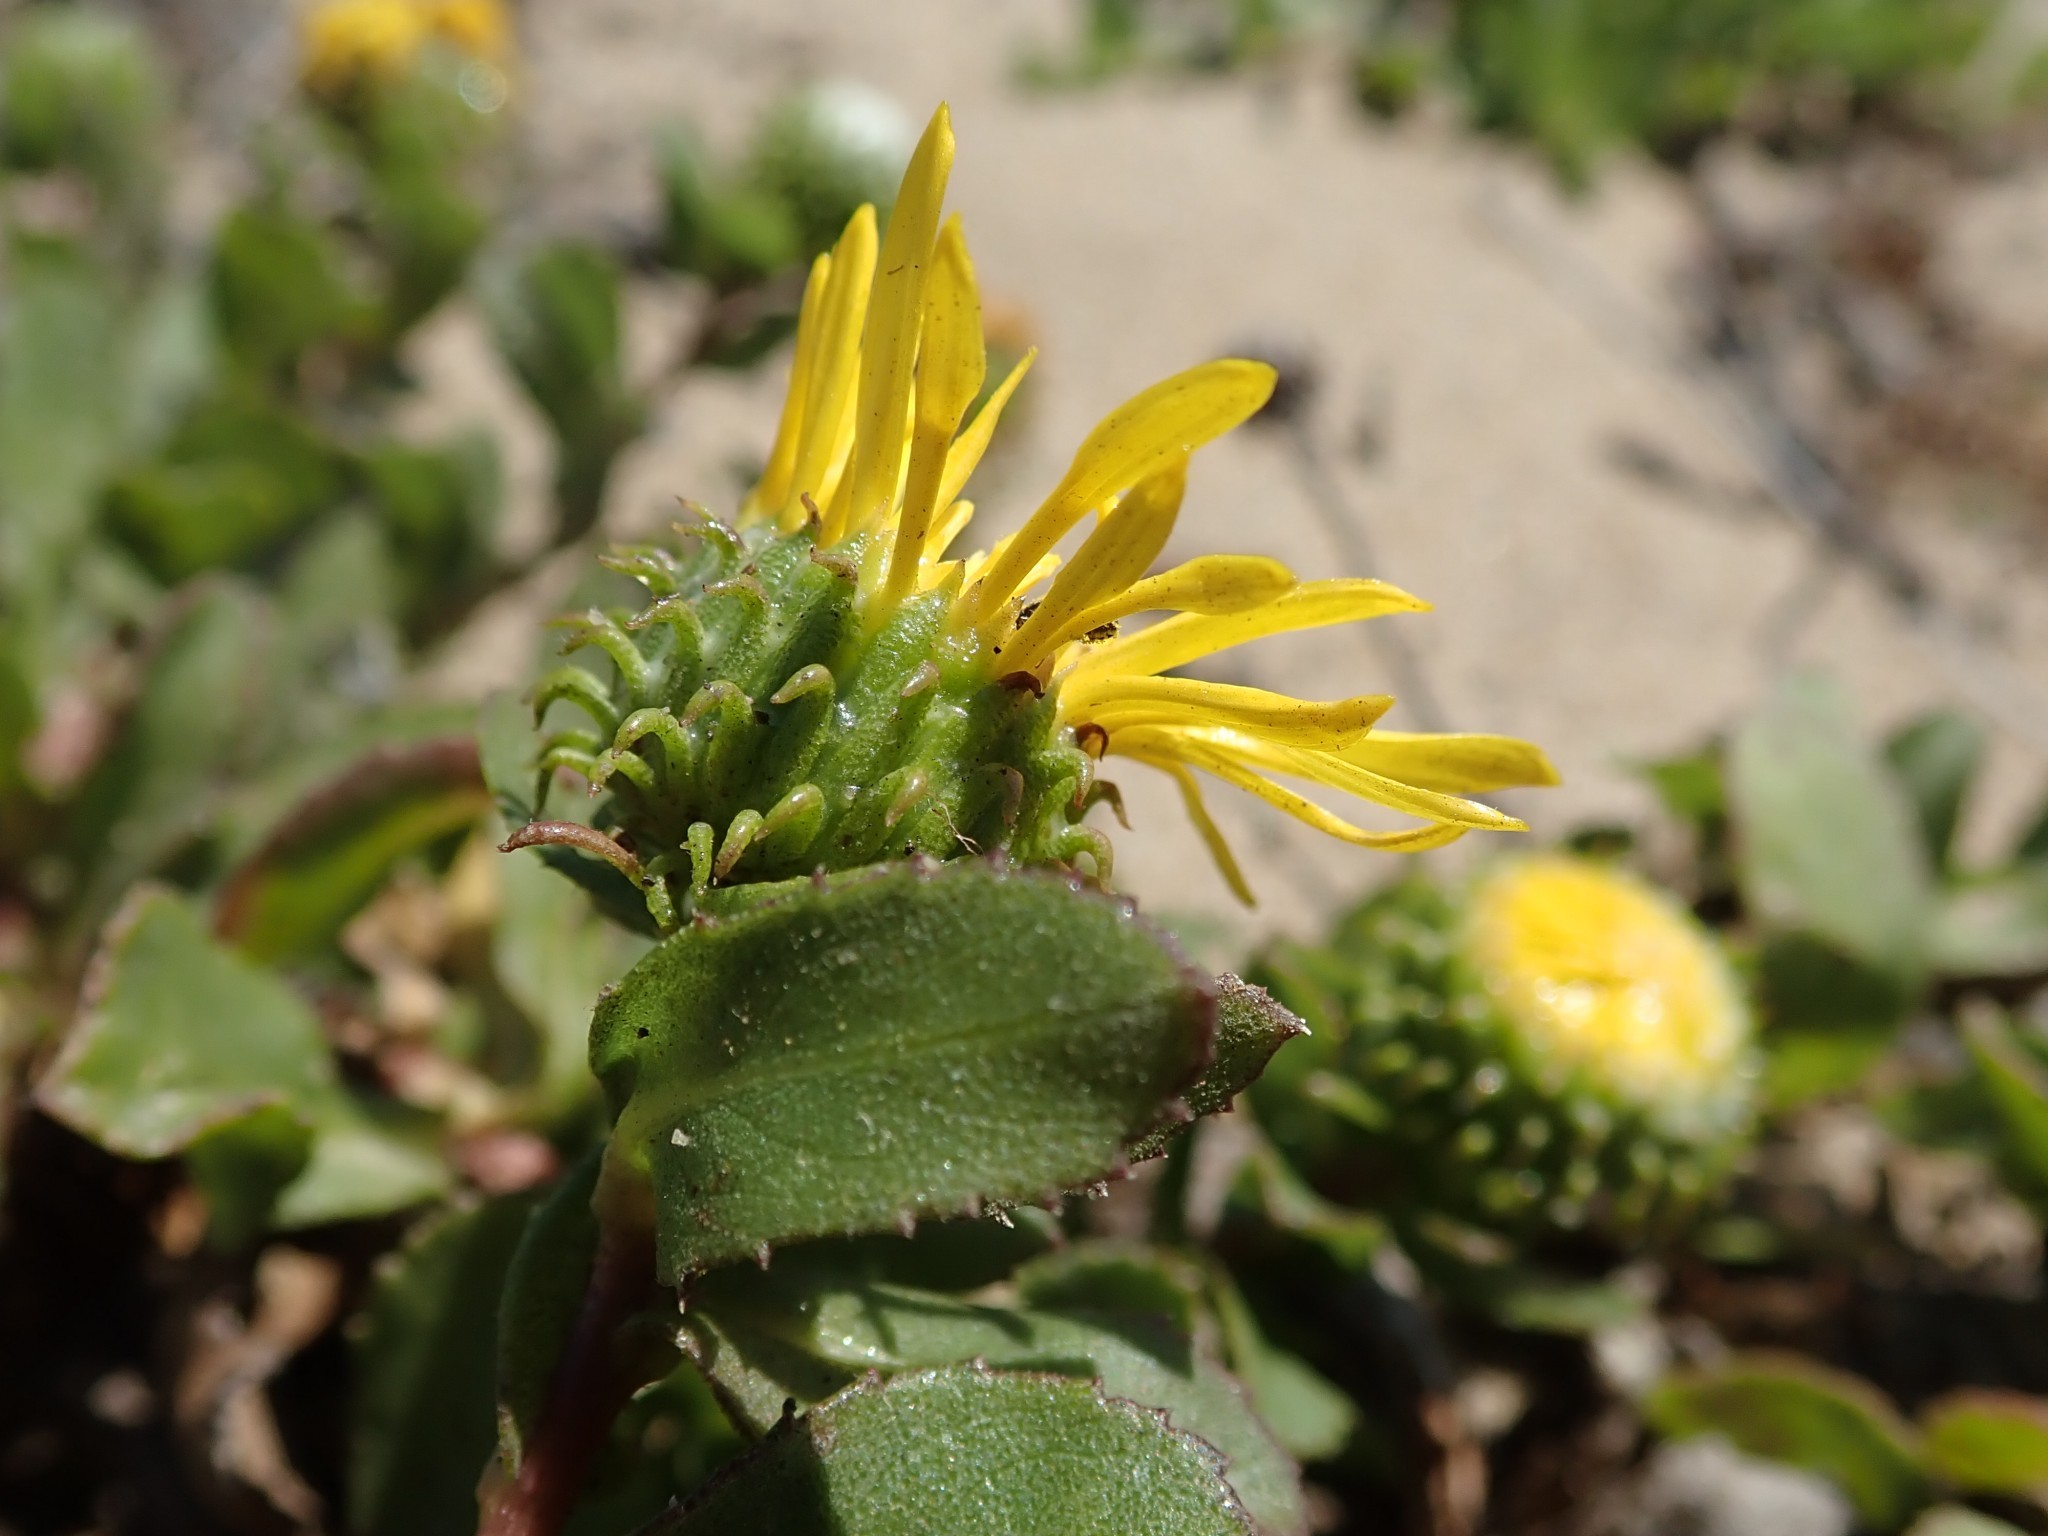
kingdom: Plantae
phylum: Tracheophyta
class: Magnoliopsida
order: Asterales
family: Asteraceae
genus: Grindelia
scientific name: Grindelia hirsutula
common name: Hairy gumweed
